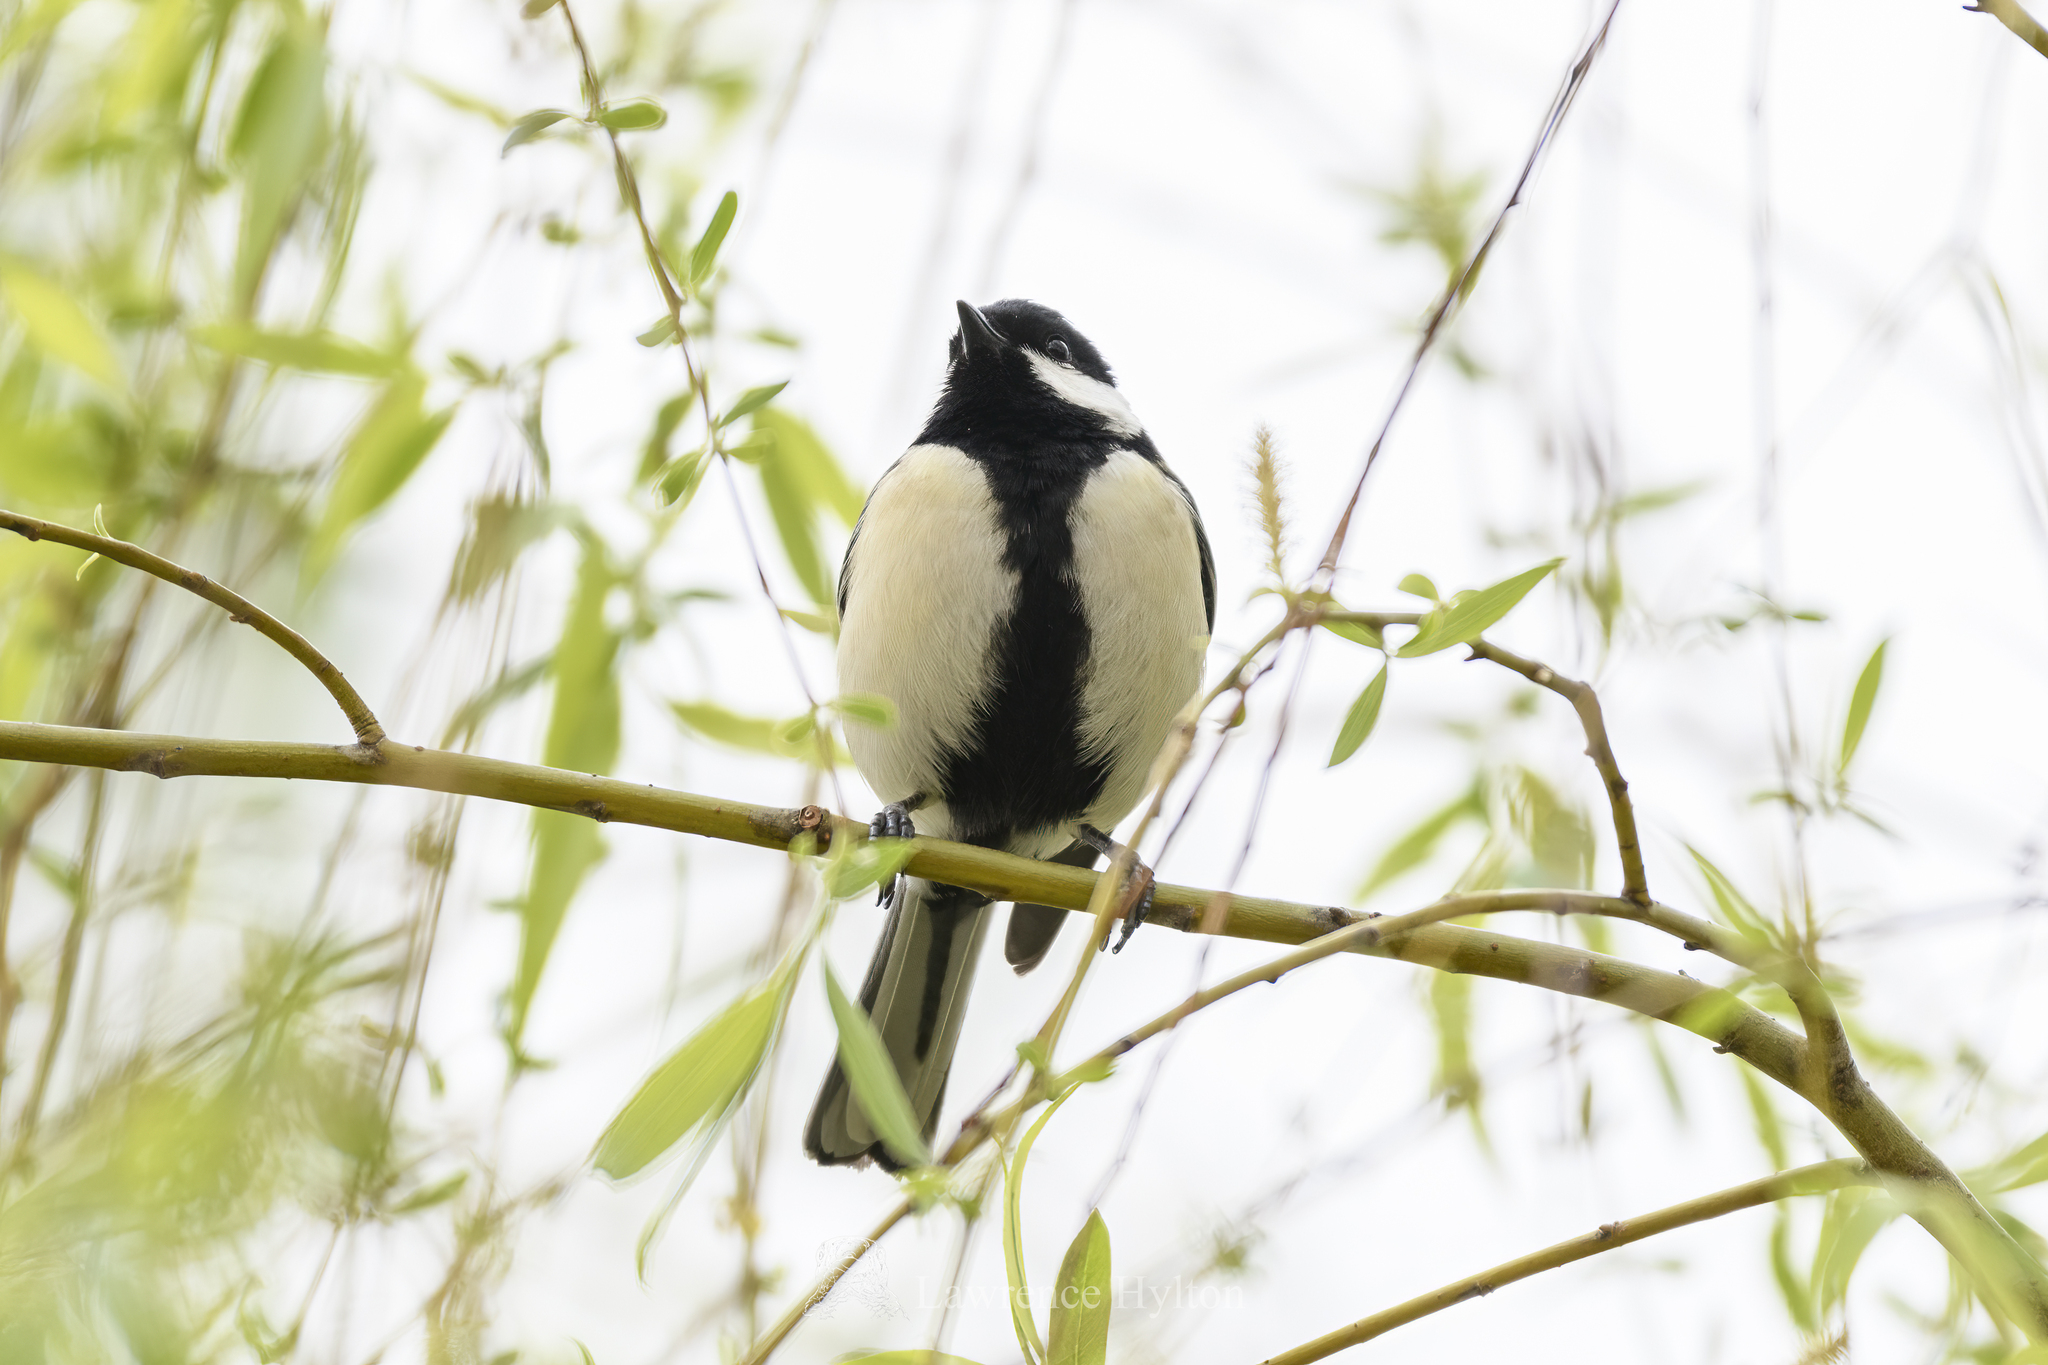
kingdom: Animalia
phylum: Chordata
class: Aves
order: Passeriformes
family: Paridae
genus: Parus
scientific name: Parus minor
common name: Japanese tit
